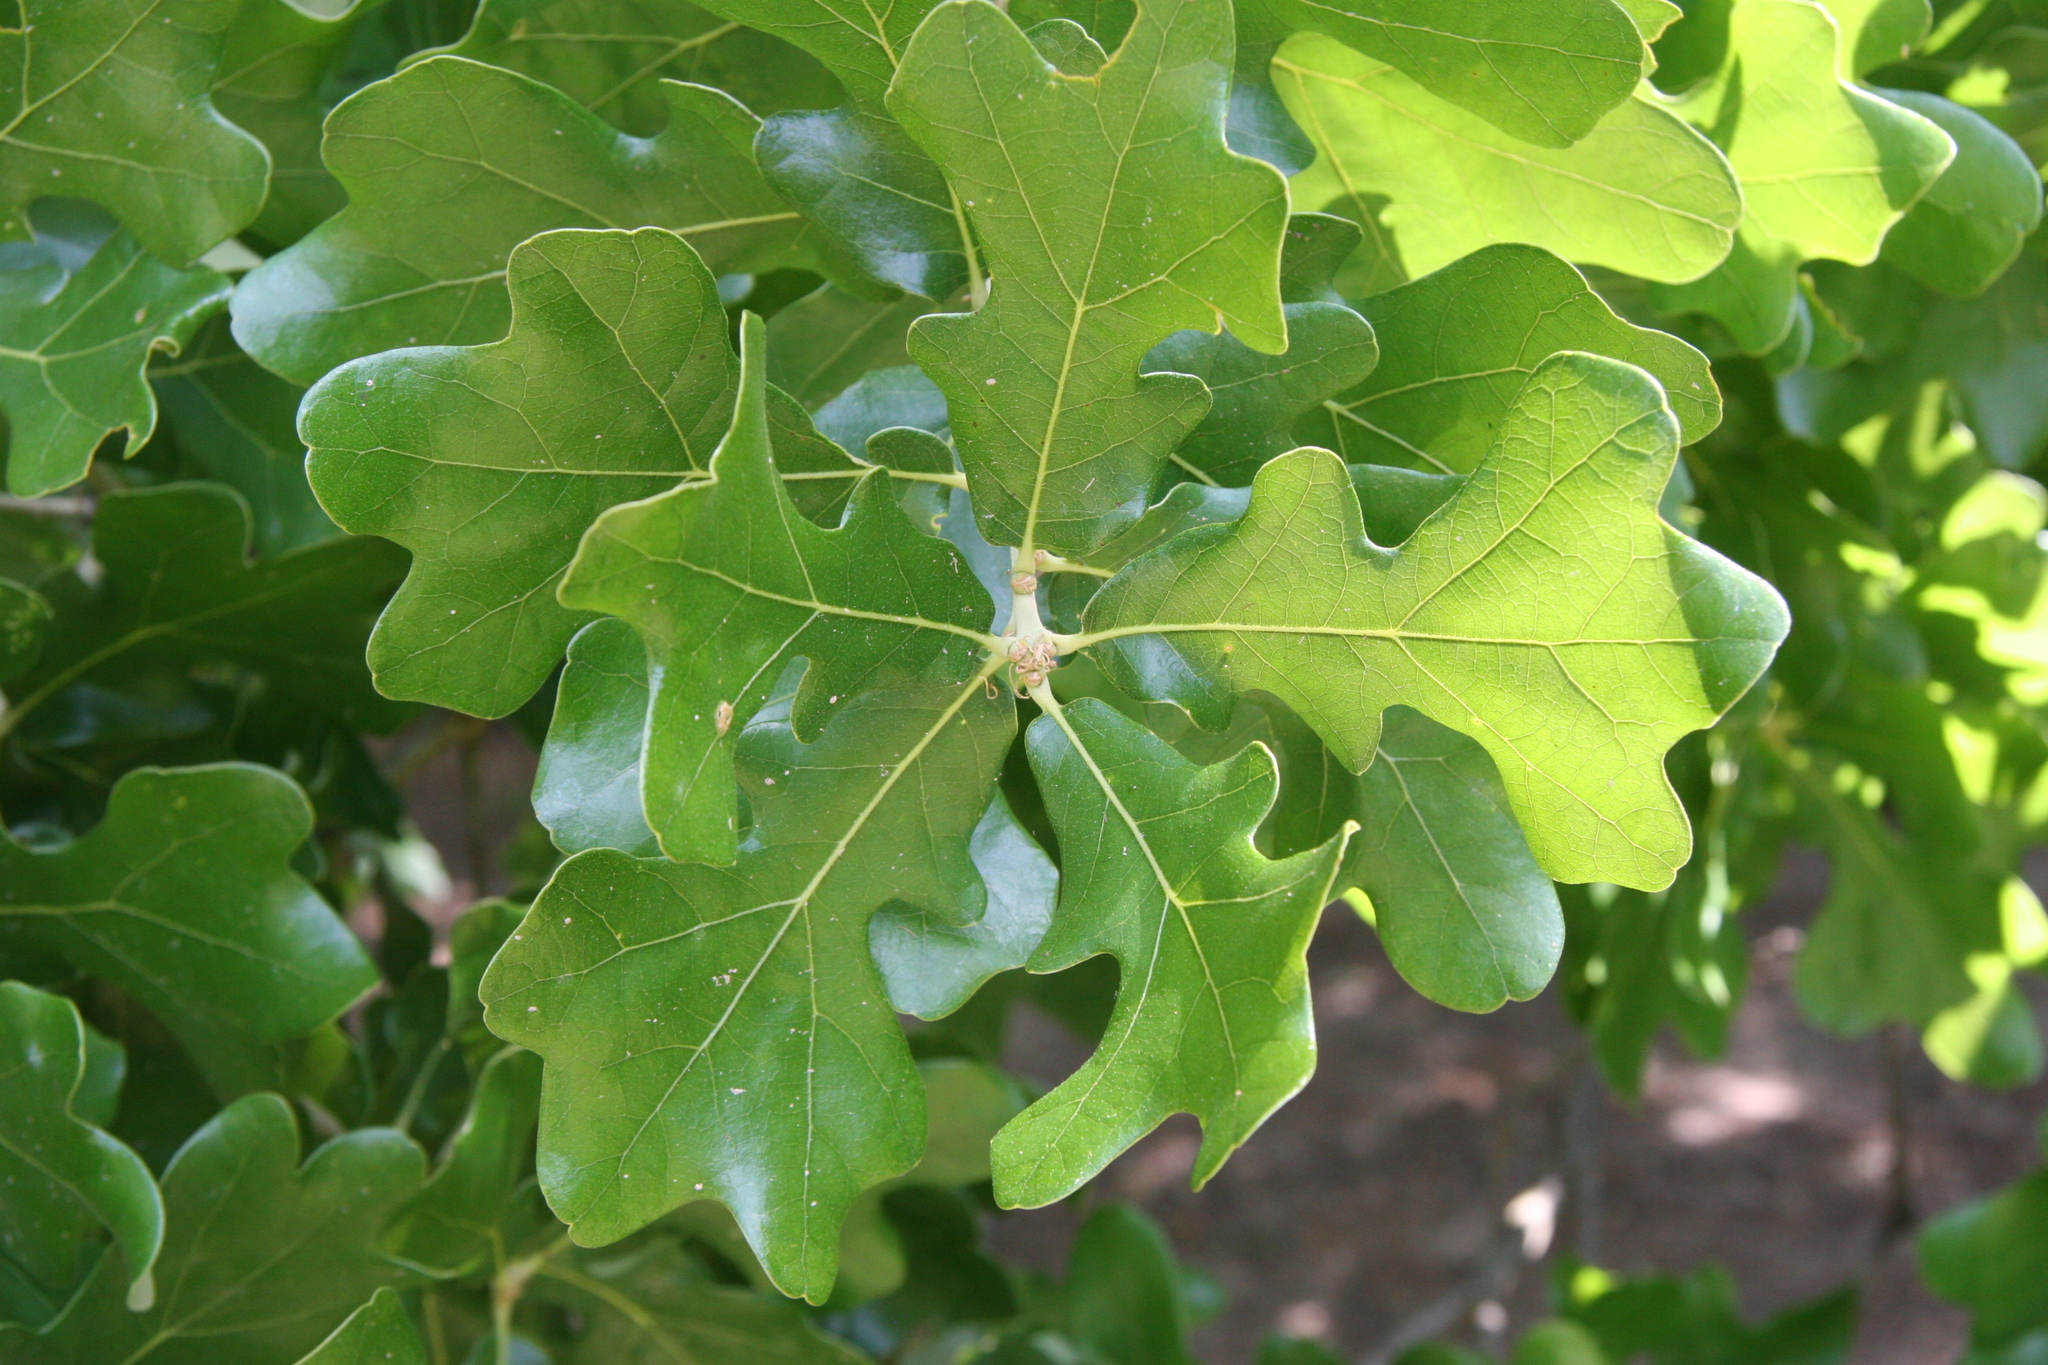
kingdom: Plantae
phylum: Tracheophyta
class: Magnoliopsida
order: Fagales
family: Fagaceae
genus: Quercus
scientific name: Quercus stellata
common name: Post oak
